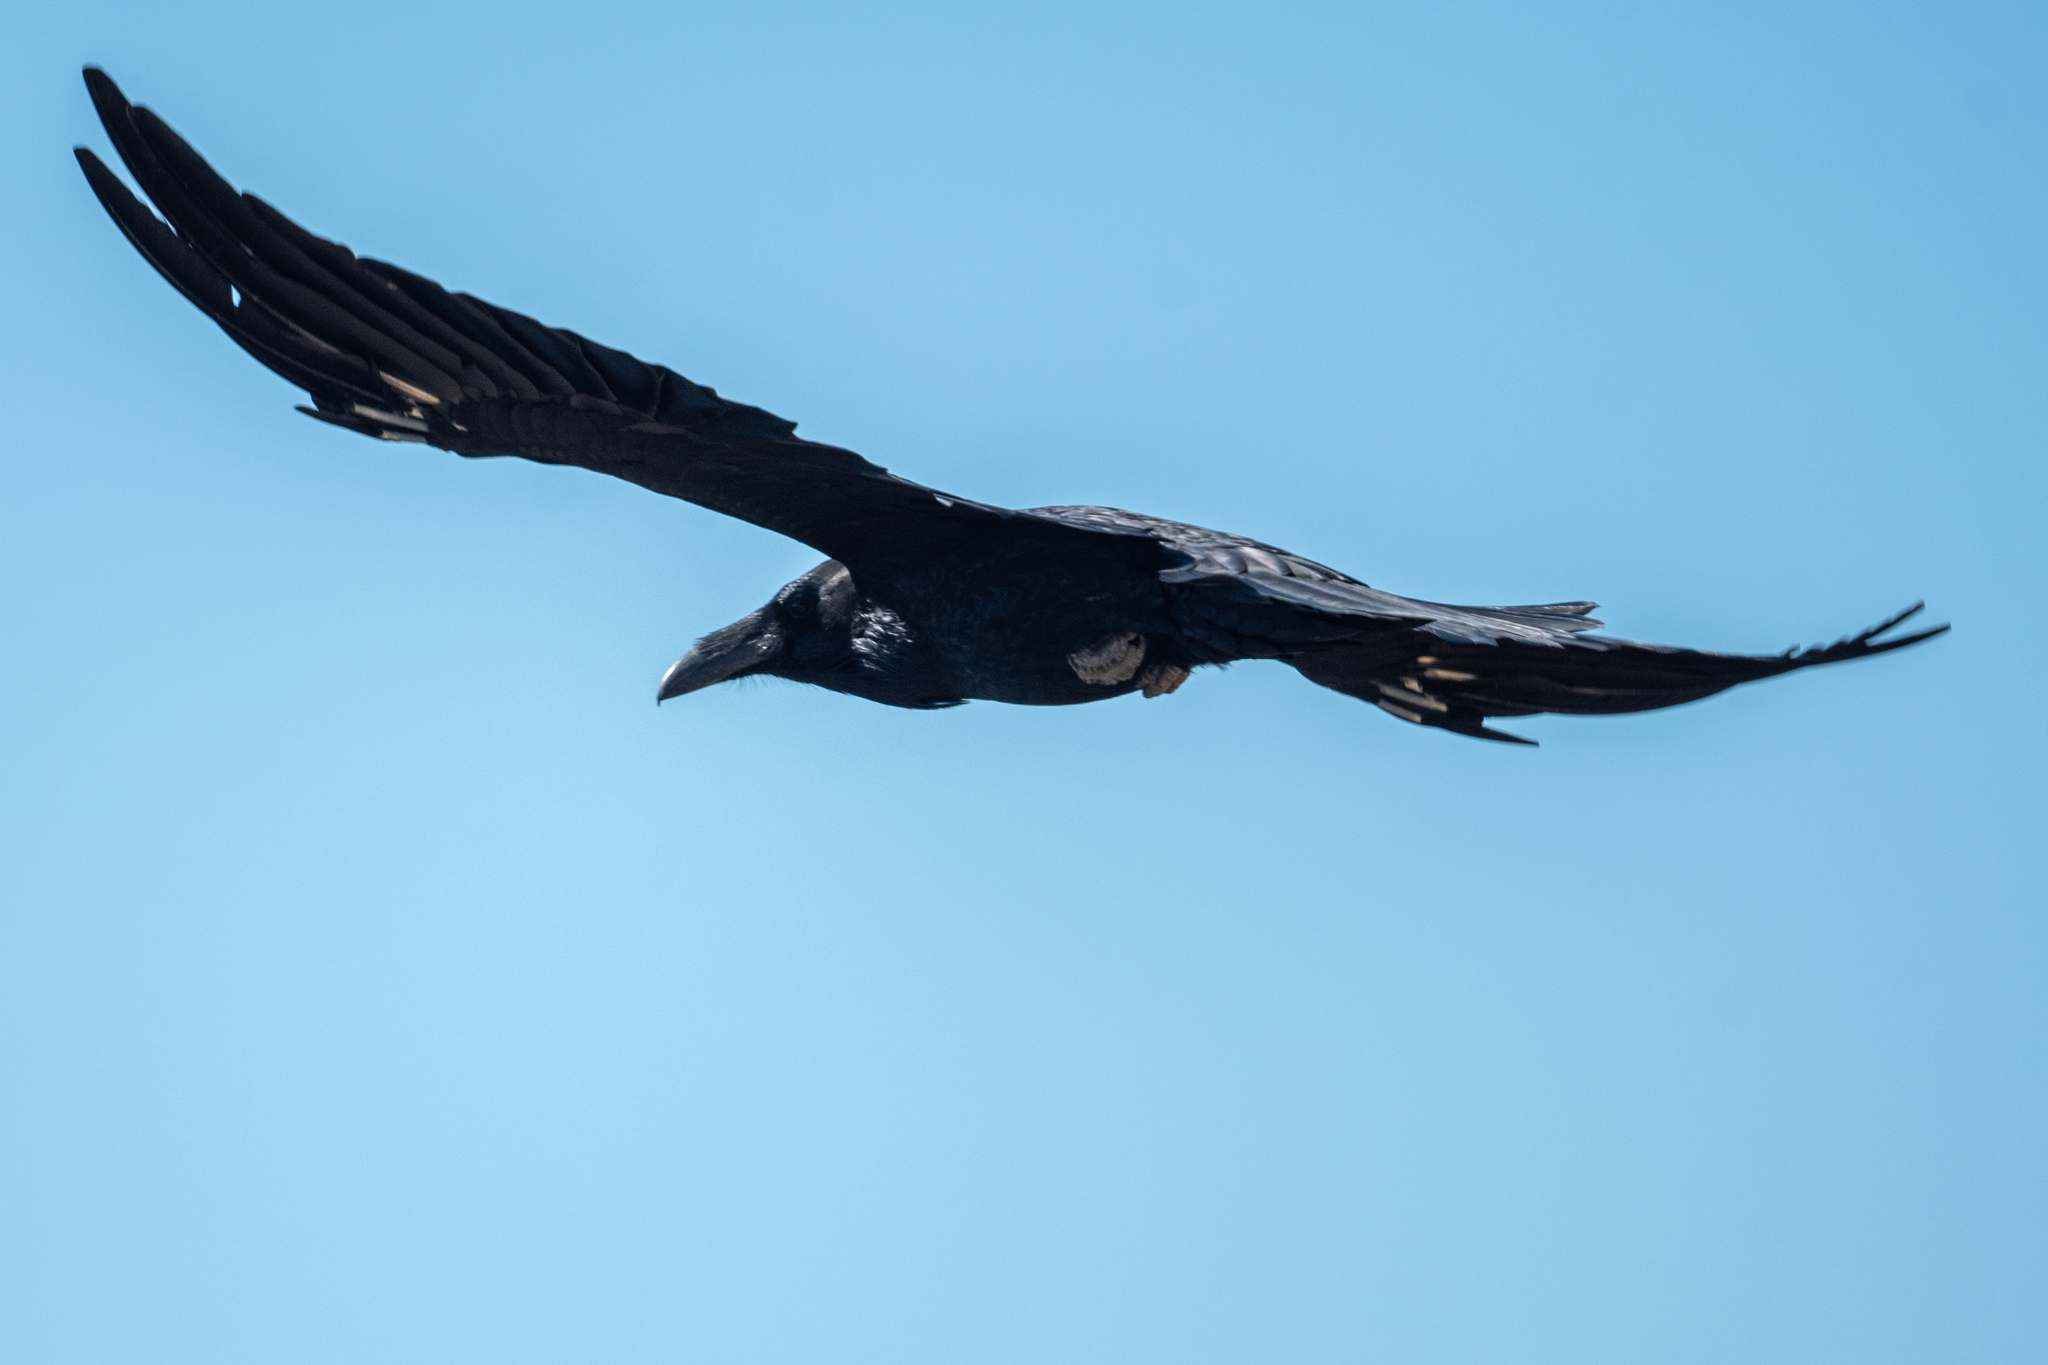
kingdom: Animalia
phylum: Chordata
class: Aves
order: Passeriformes
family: Corvidae
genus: Corvus
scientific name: Corvus corax
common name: Common raven
